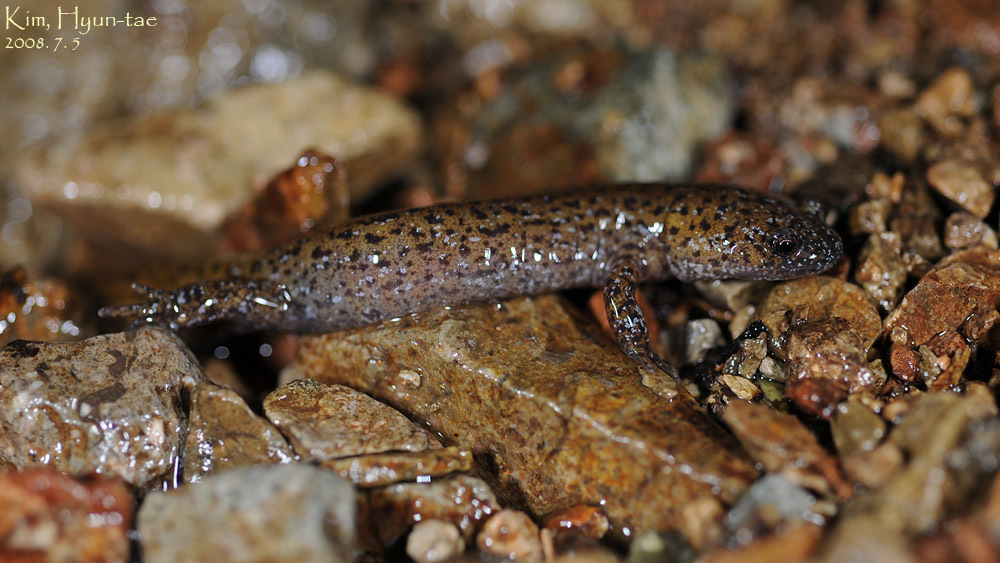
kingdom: Animalia
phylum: Chordata
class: Amphibia
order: Caudata
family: Hynobiidae
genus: Hynobius
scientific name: Hynobius leechii
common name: Gensan salamander
